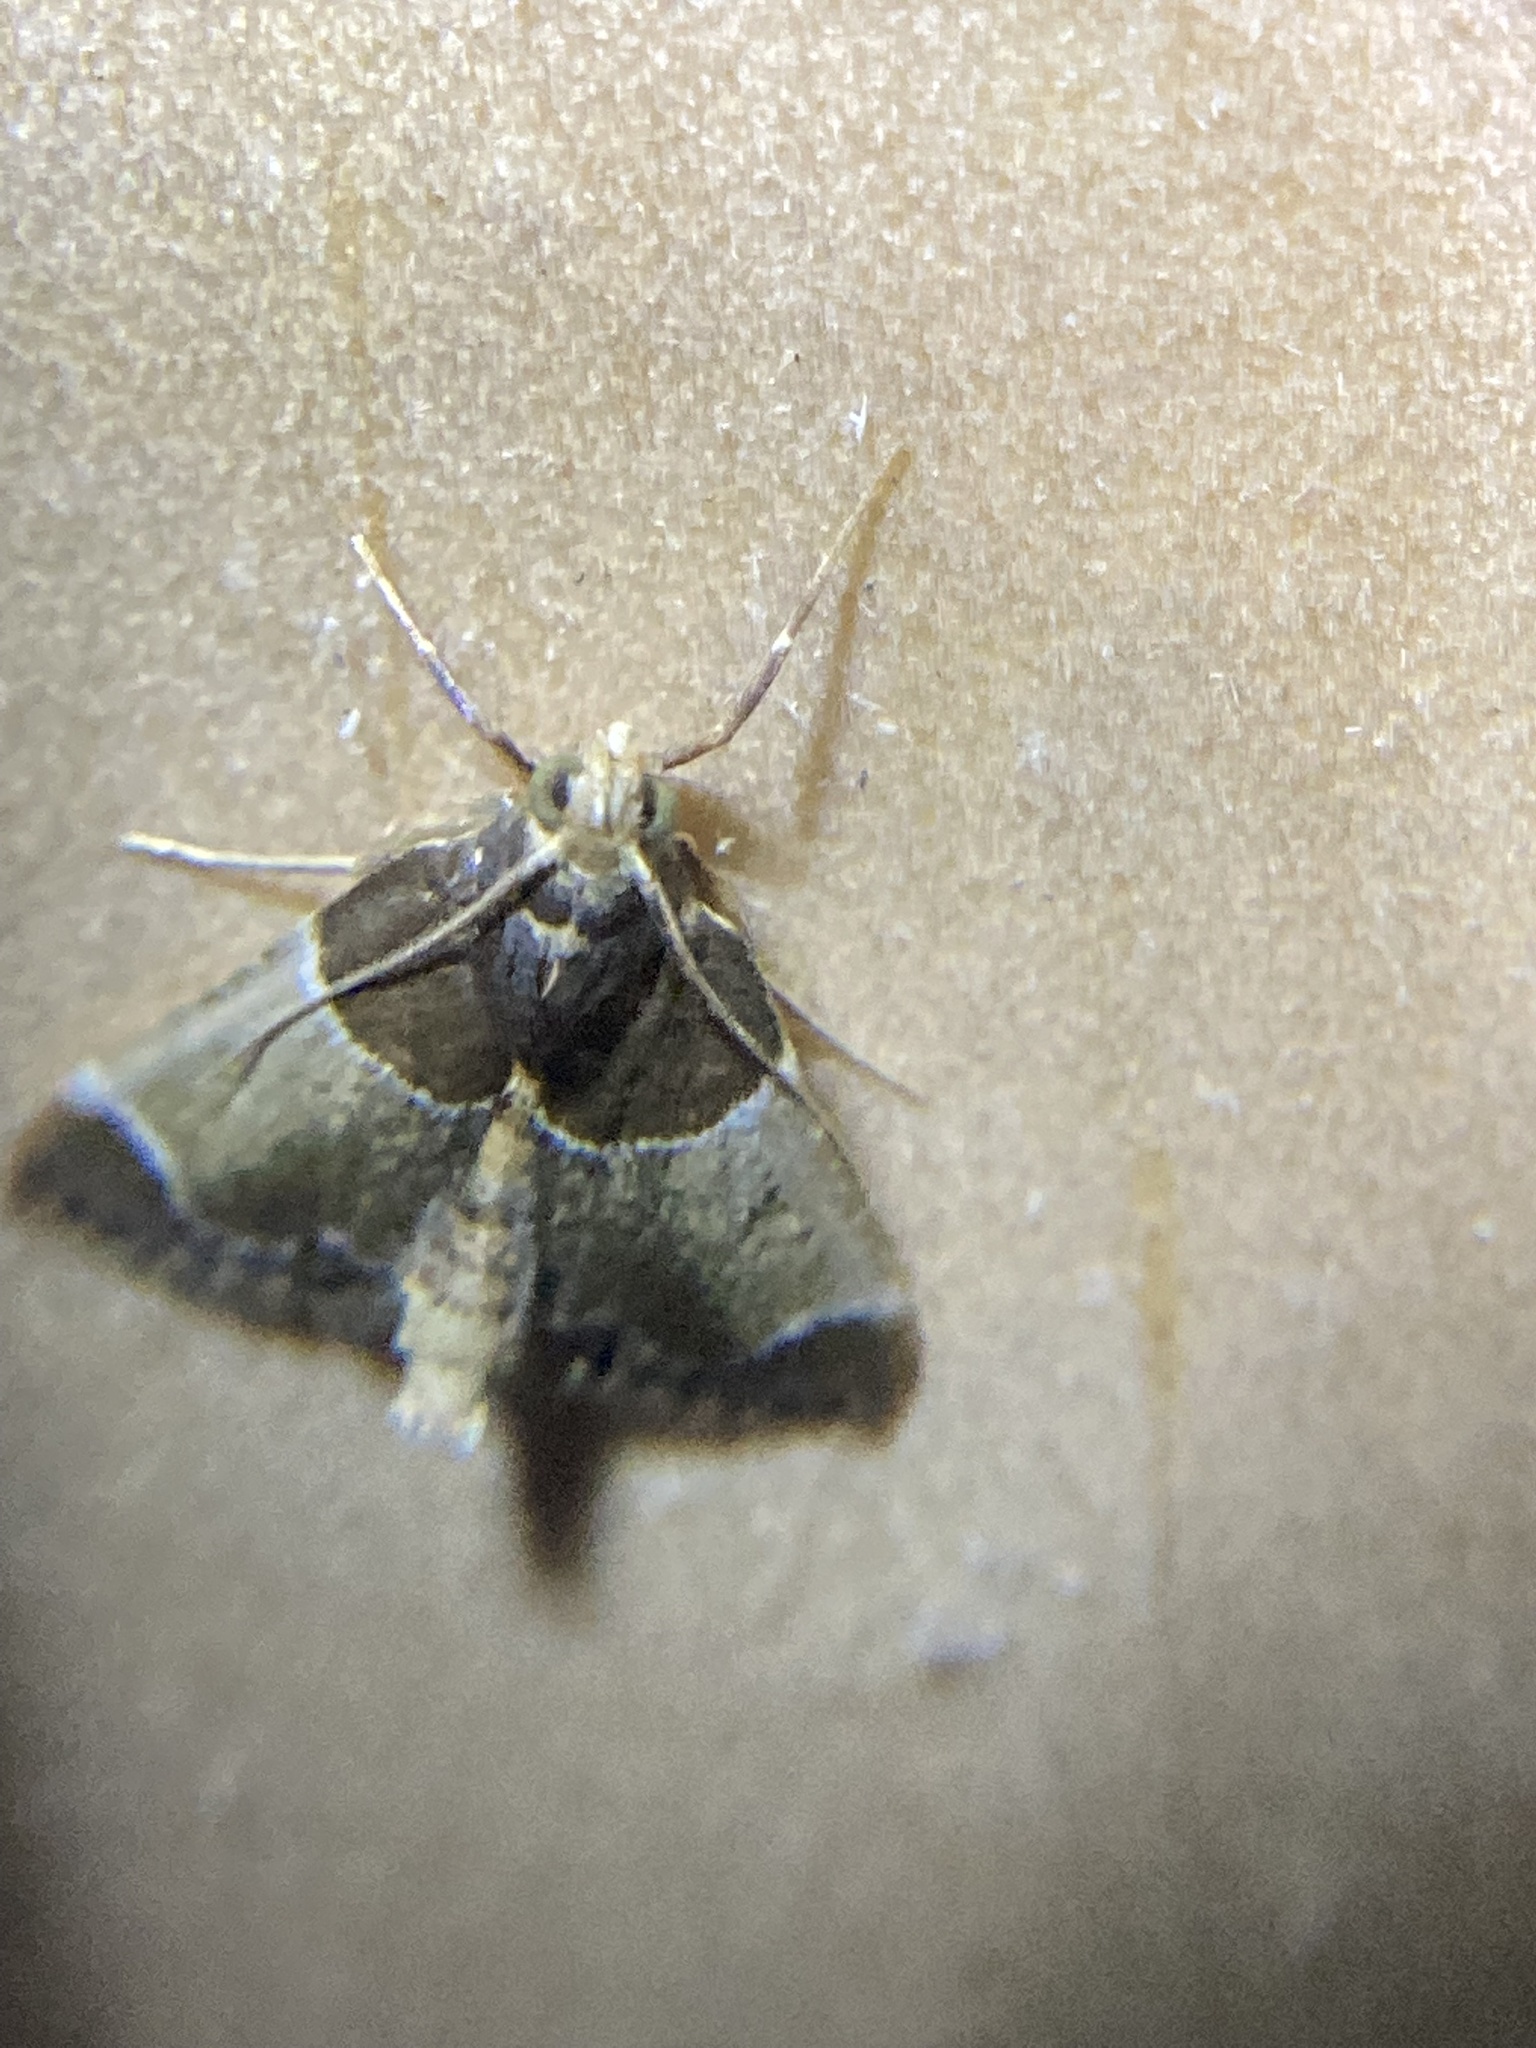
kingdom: Animalia
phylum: Arthropoda
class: Insecta
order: Lepidoptera
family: Pyralidae
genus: Pyralis
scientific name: Pyralis farinalis
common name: Meal moth
